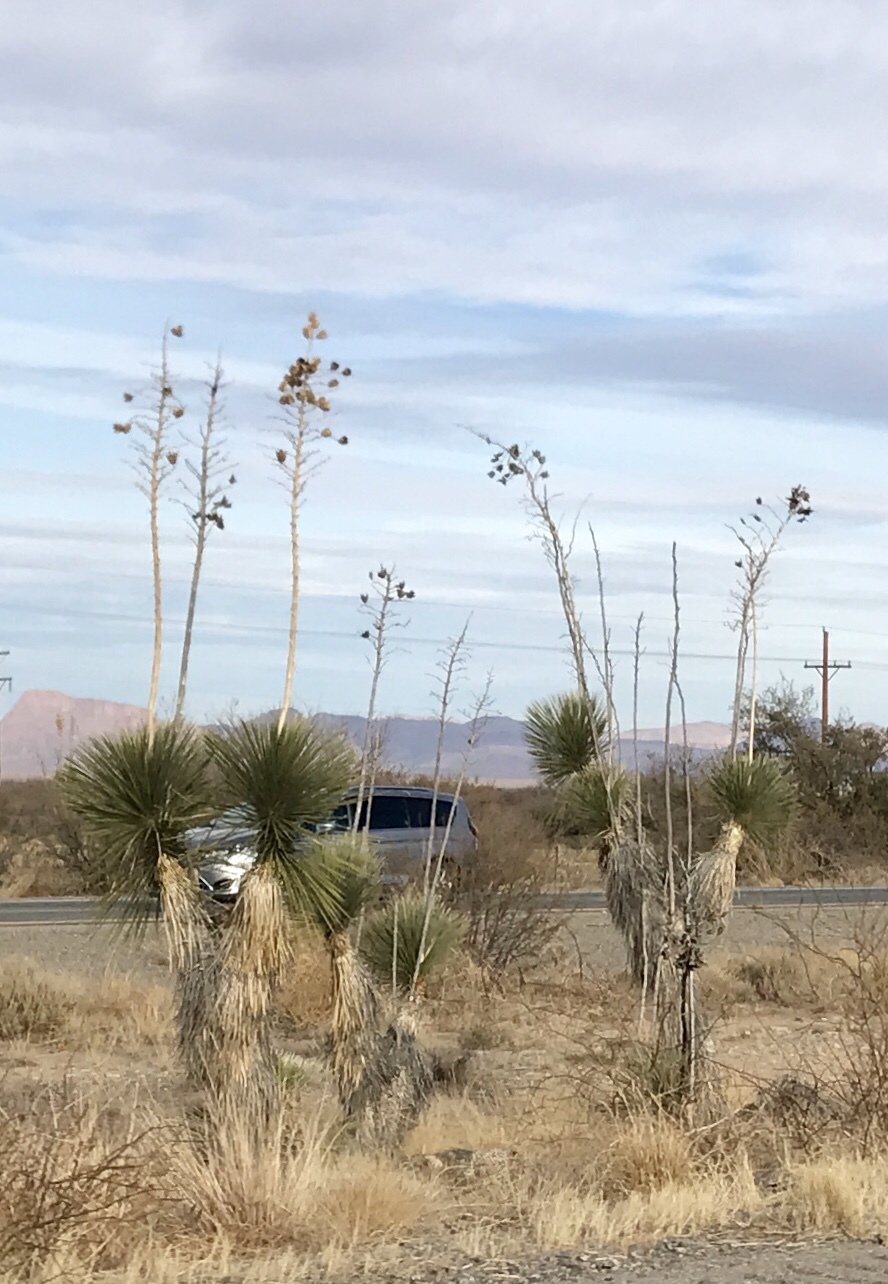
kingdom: Plantae
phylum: Tracheophyta
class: Liliopsida
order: Asparagales
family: Asparagaceae
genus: Yucca
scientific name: Yucca elata
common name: Palmella
